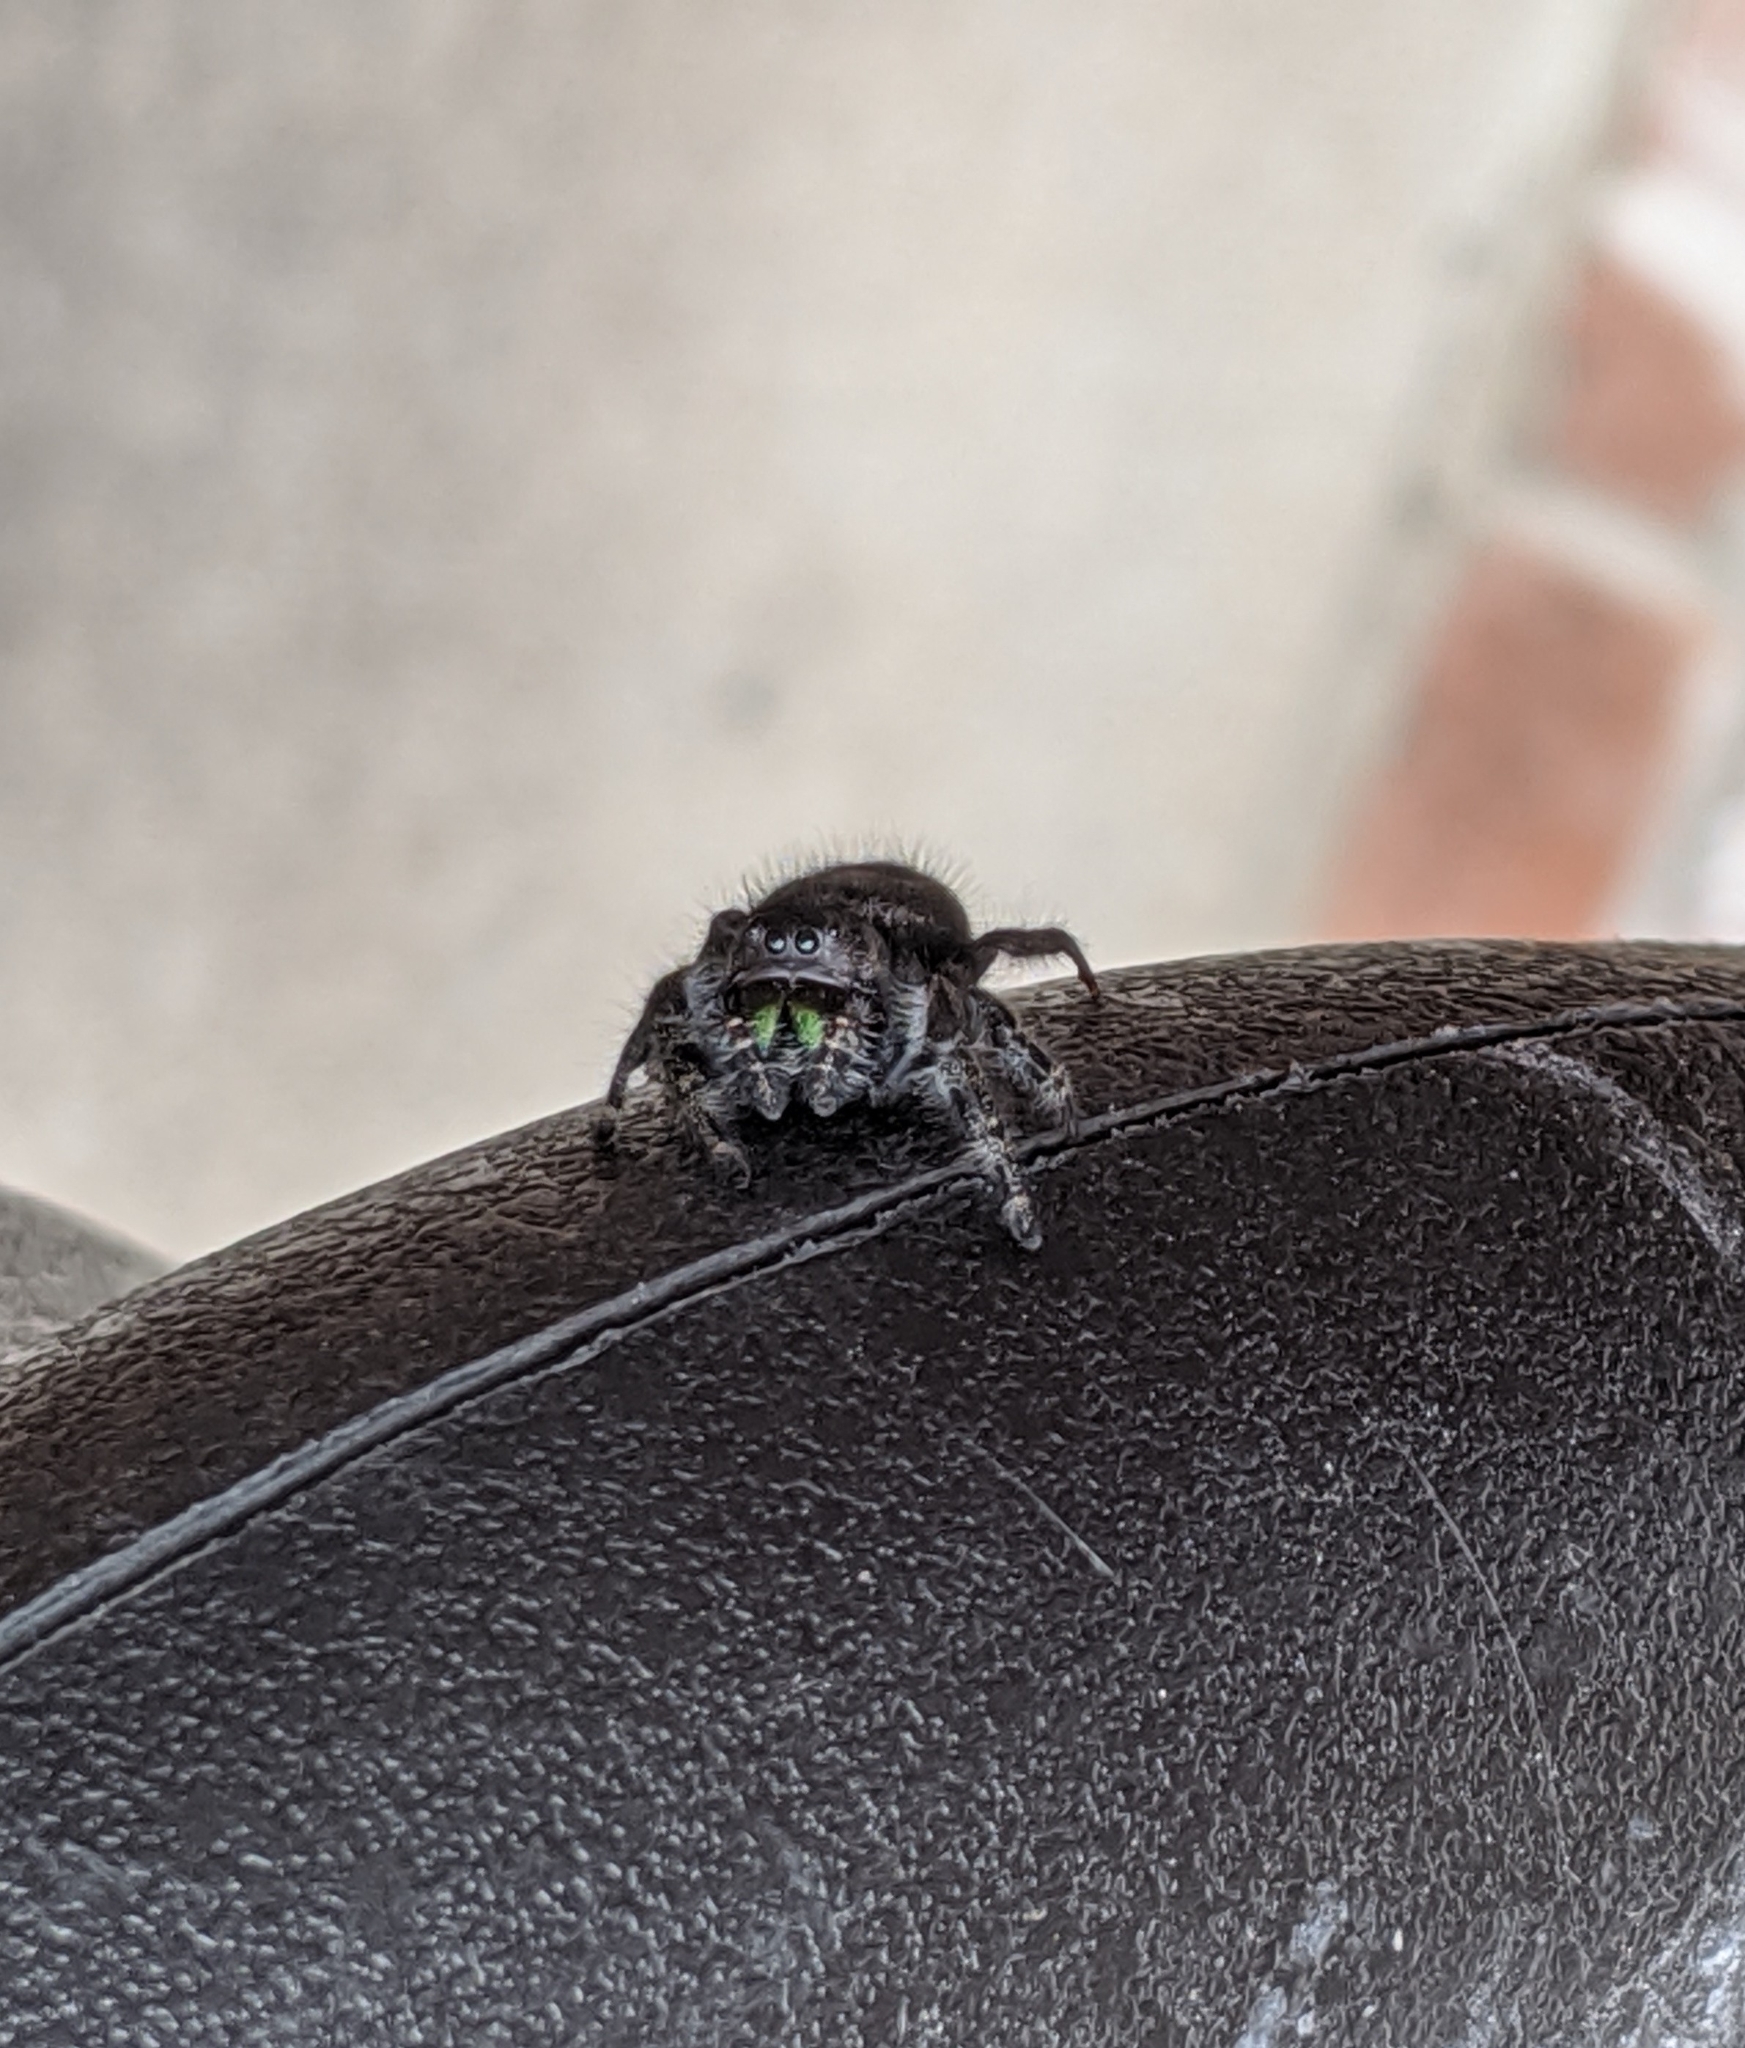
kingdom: Animalia
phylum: Arthropoda
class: Arachnida
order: Araneae
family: Salticidae
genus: Phidippus
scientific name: Phidippus audax
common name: Bold jumper
